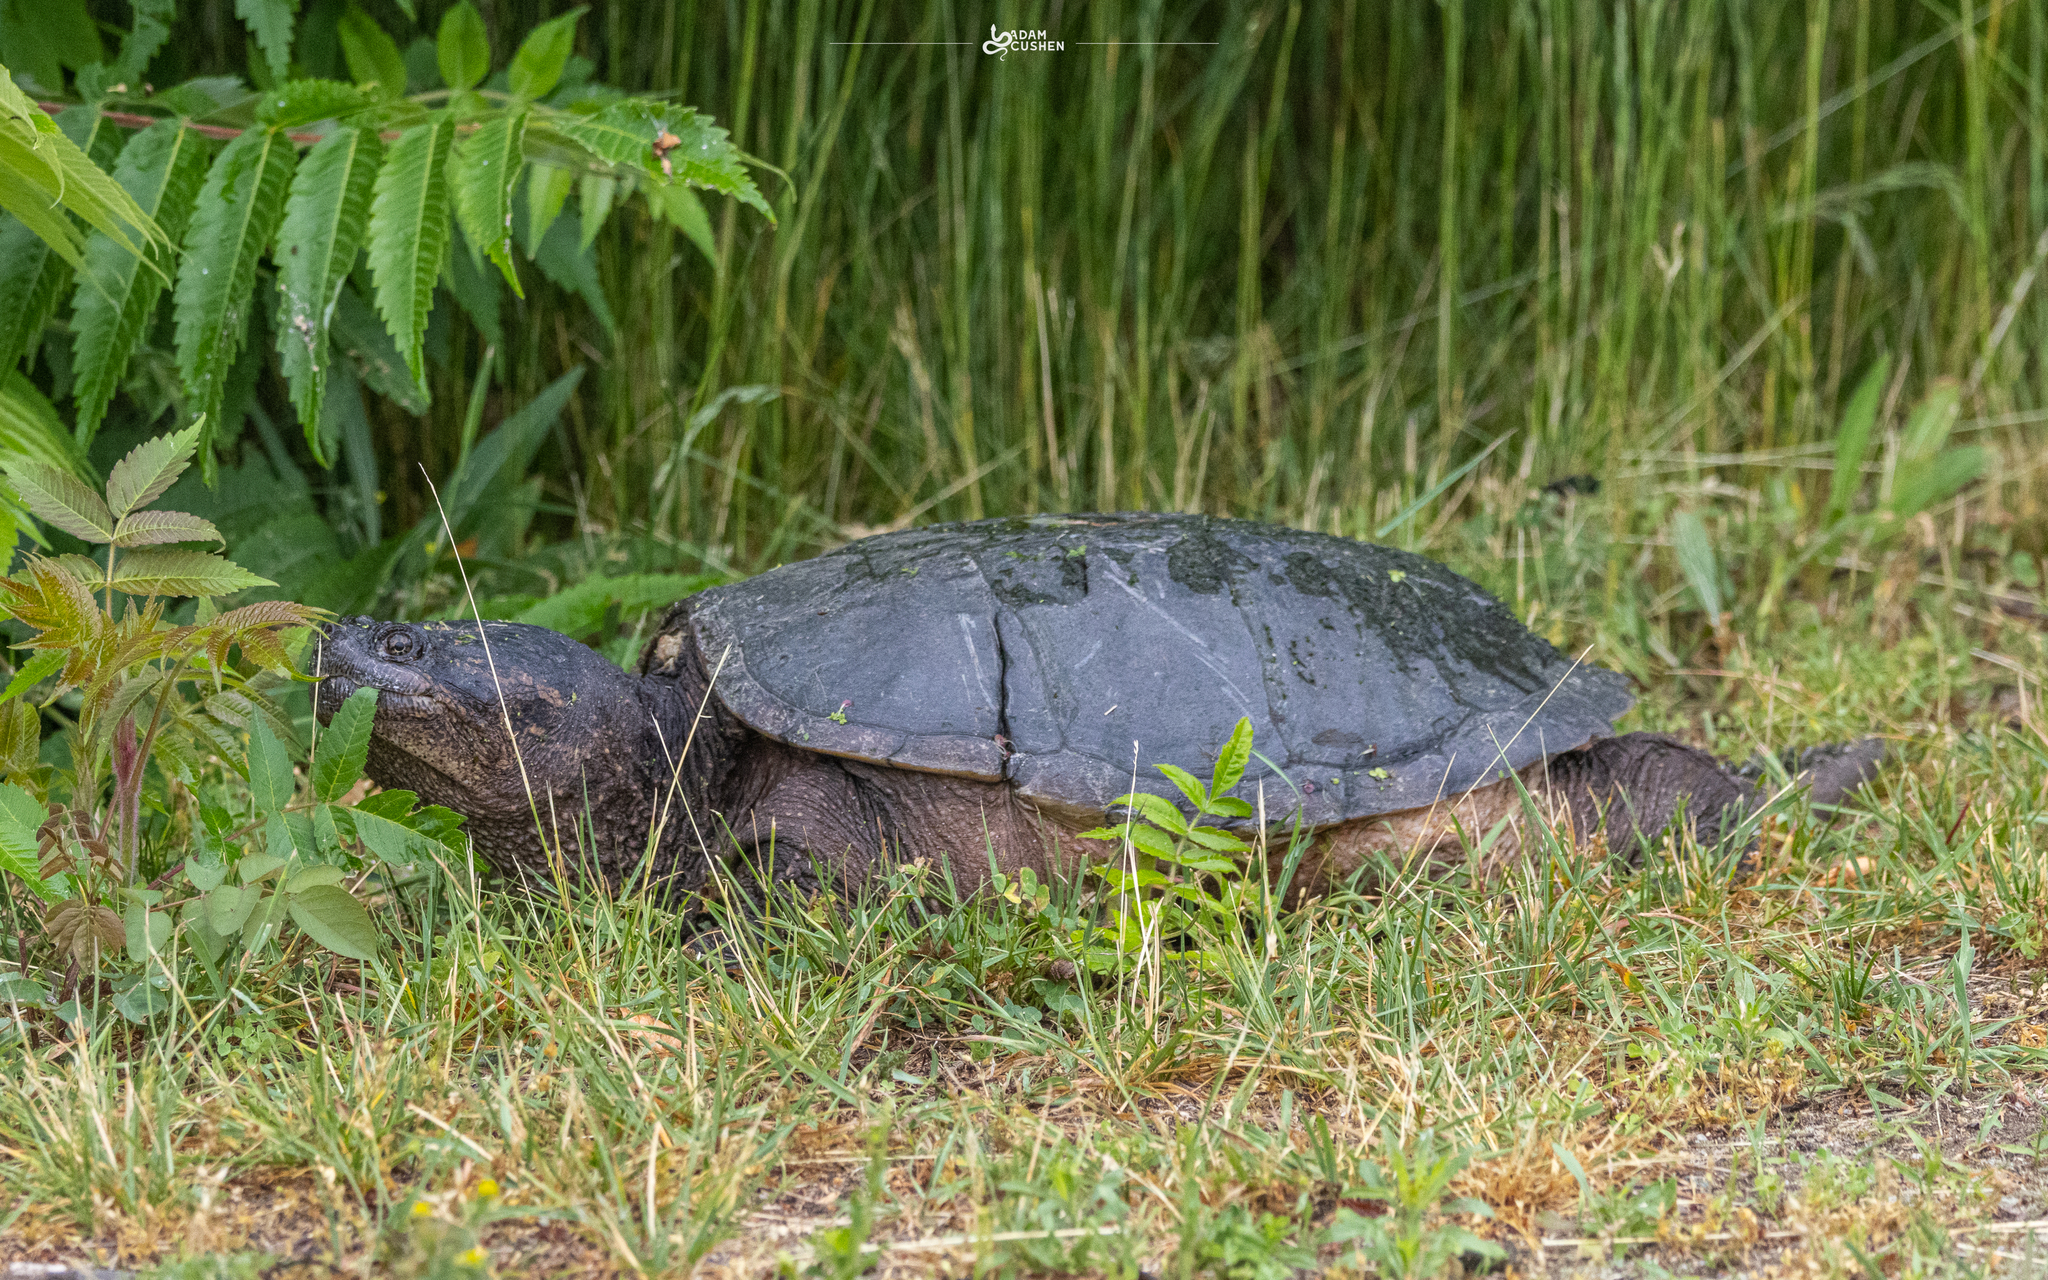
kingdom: Animalia
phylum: Chordata
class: Testudines
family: Chelydridae
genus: Chelydra
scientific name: Chelydra serpentina
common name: Common snapping turtle
